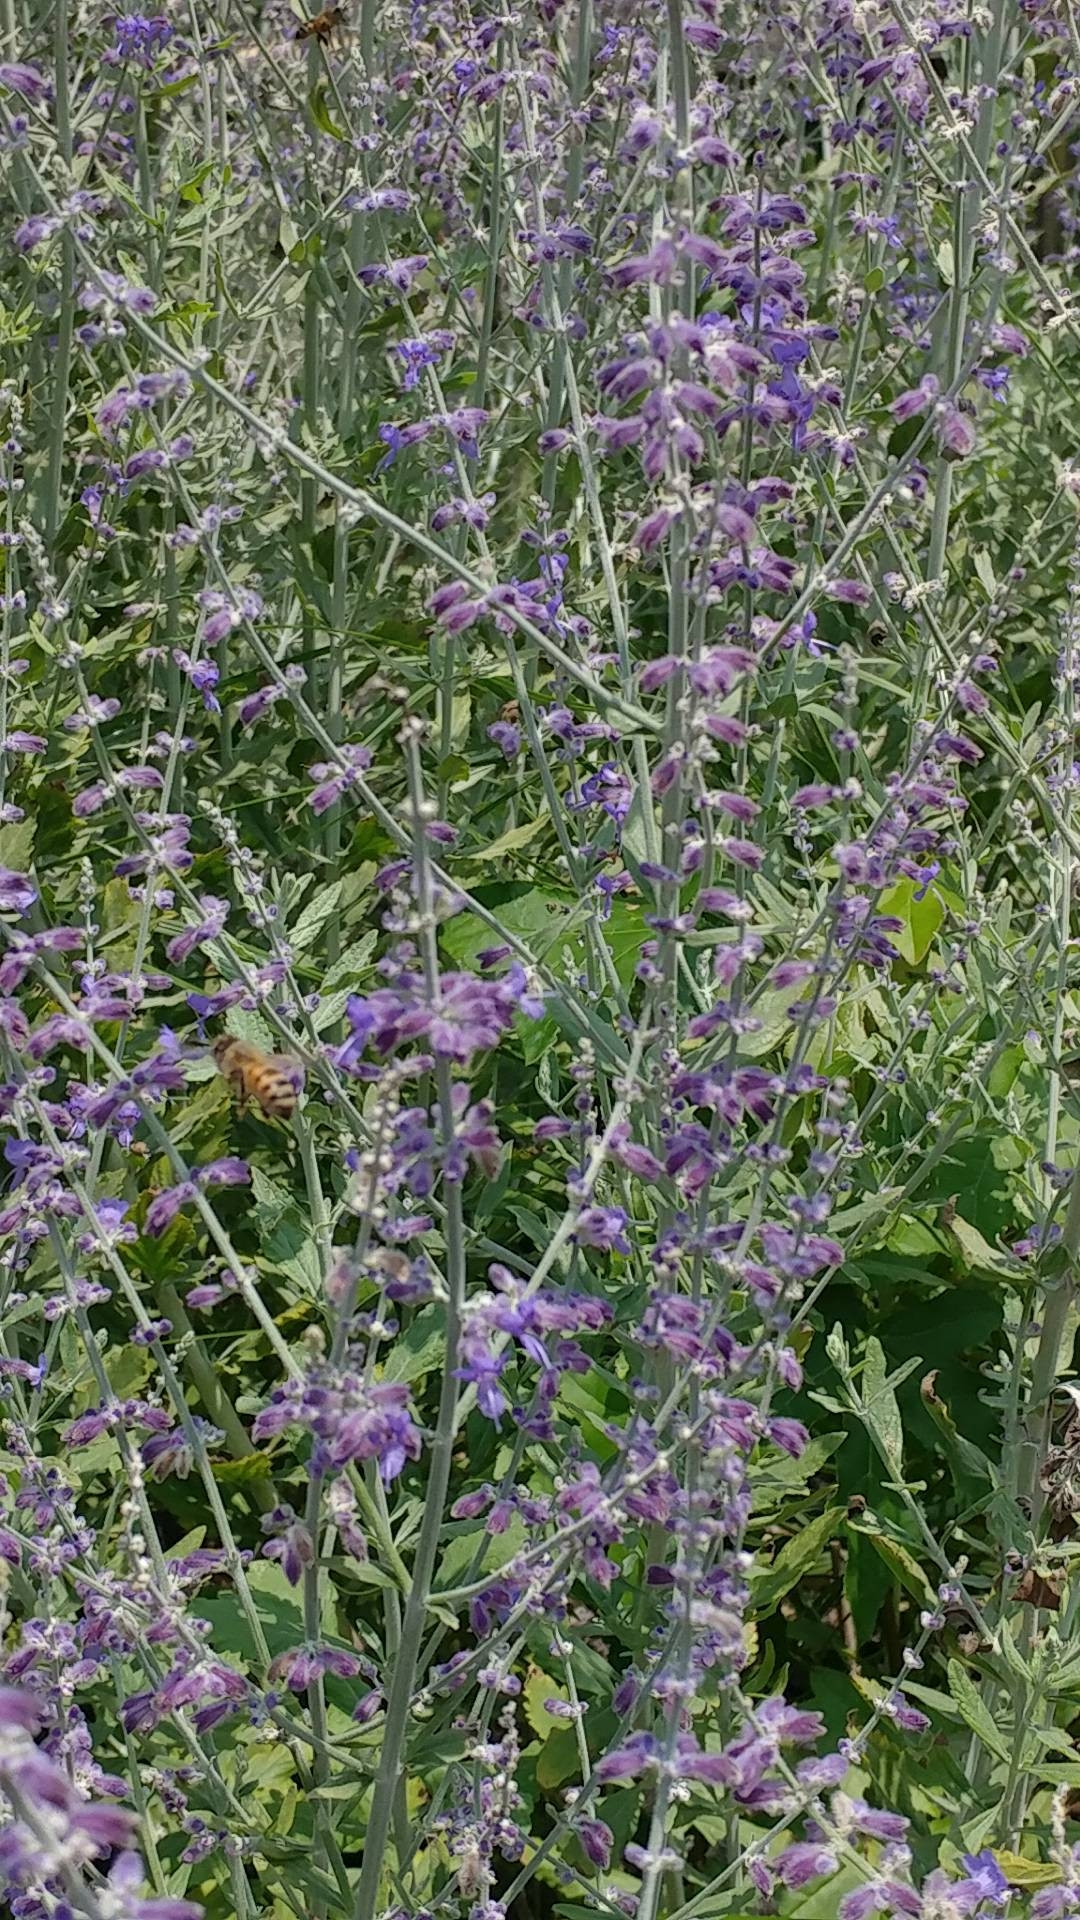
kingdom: Animalia
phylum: Arthropoda
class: Insecta
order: Hymenoptera
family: Apidae
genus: Apis
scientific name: Apis mellifera
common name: Honey bee
